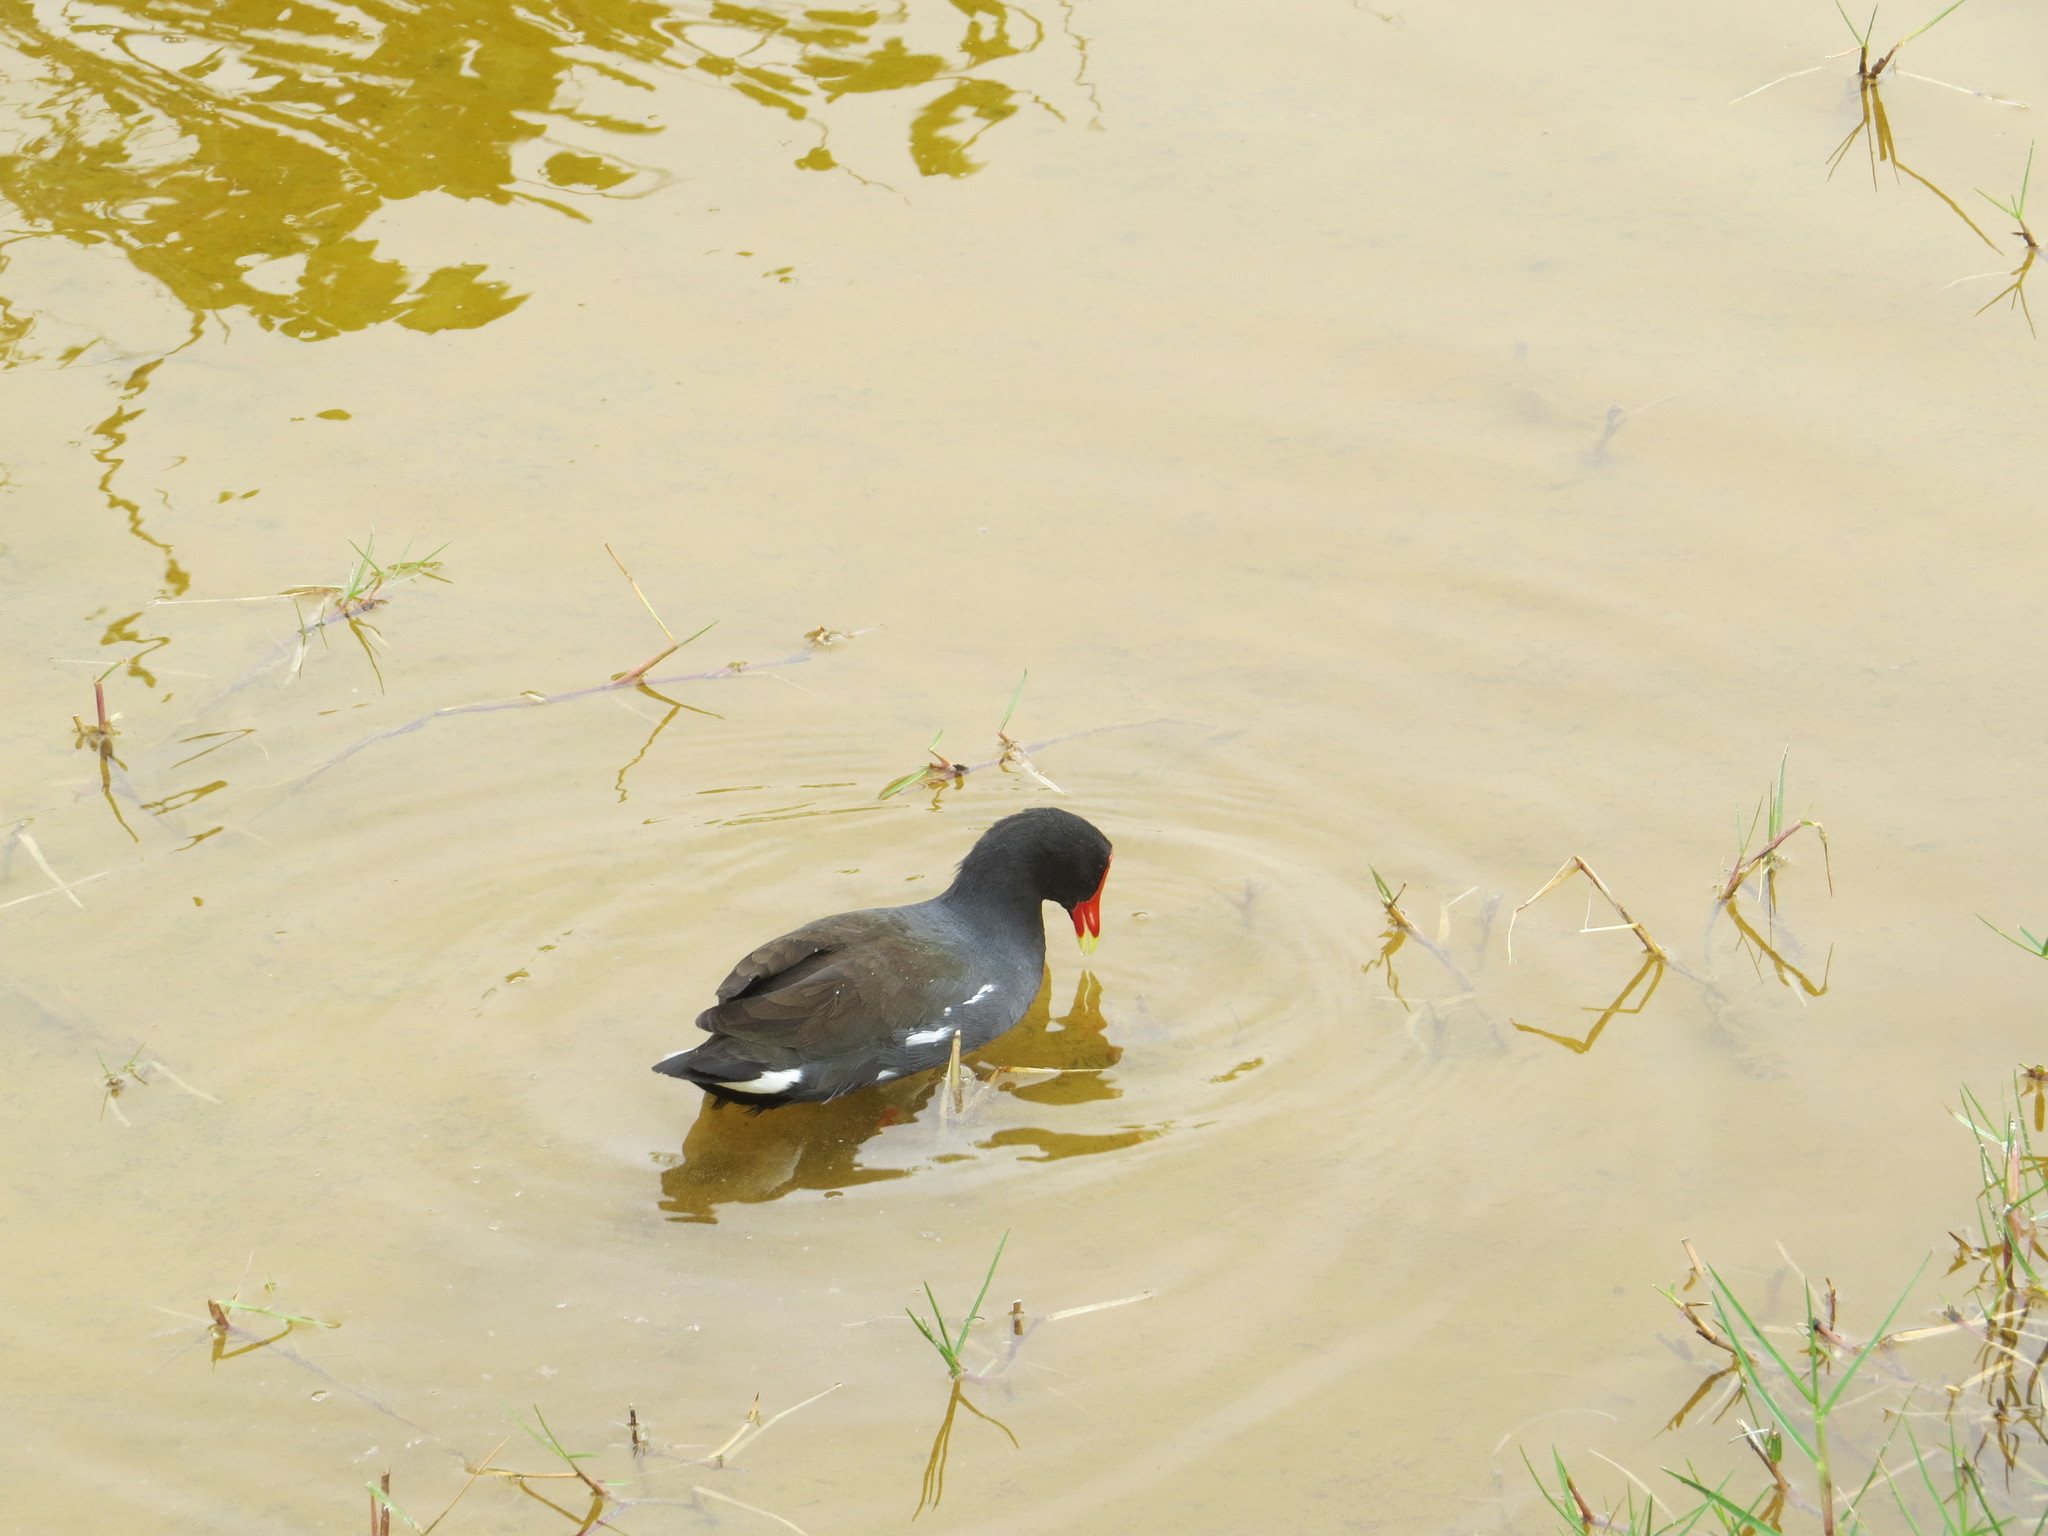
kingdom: Animalia
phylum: Chordata
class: Aves
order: Gruiformes
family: Rallidae
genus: Gallinula
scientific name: Gallinula chloropus
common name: Common moorhen
